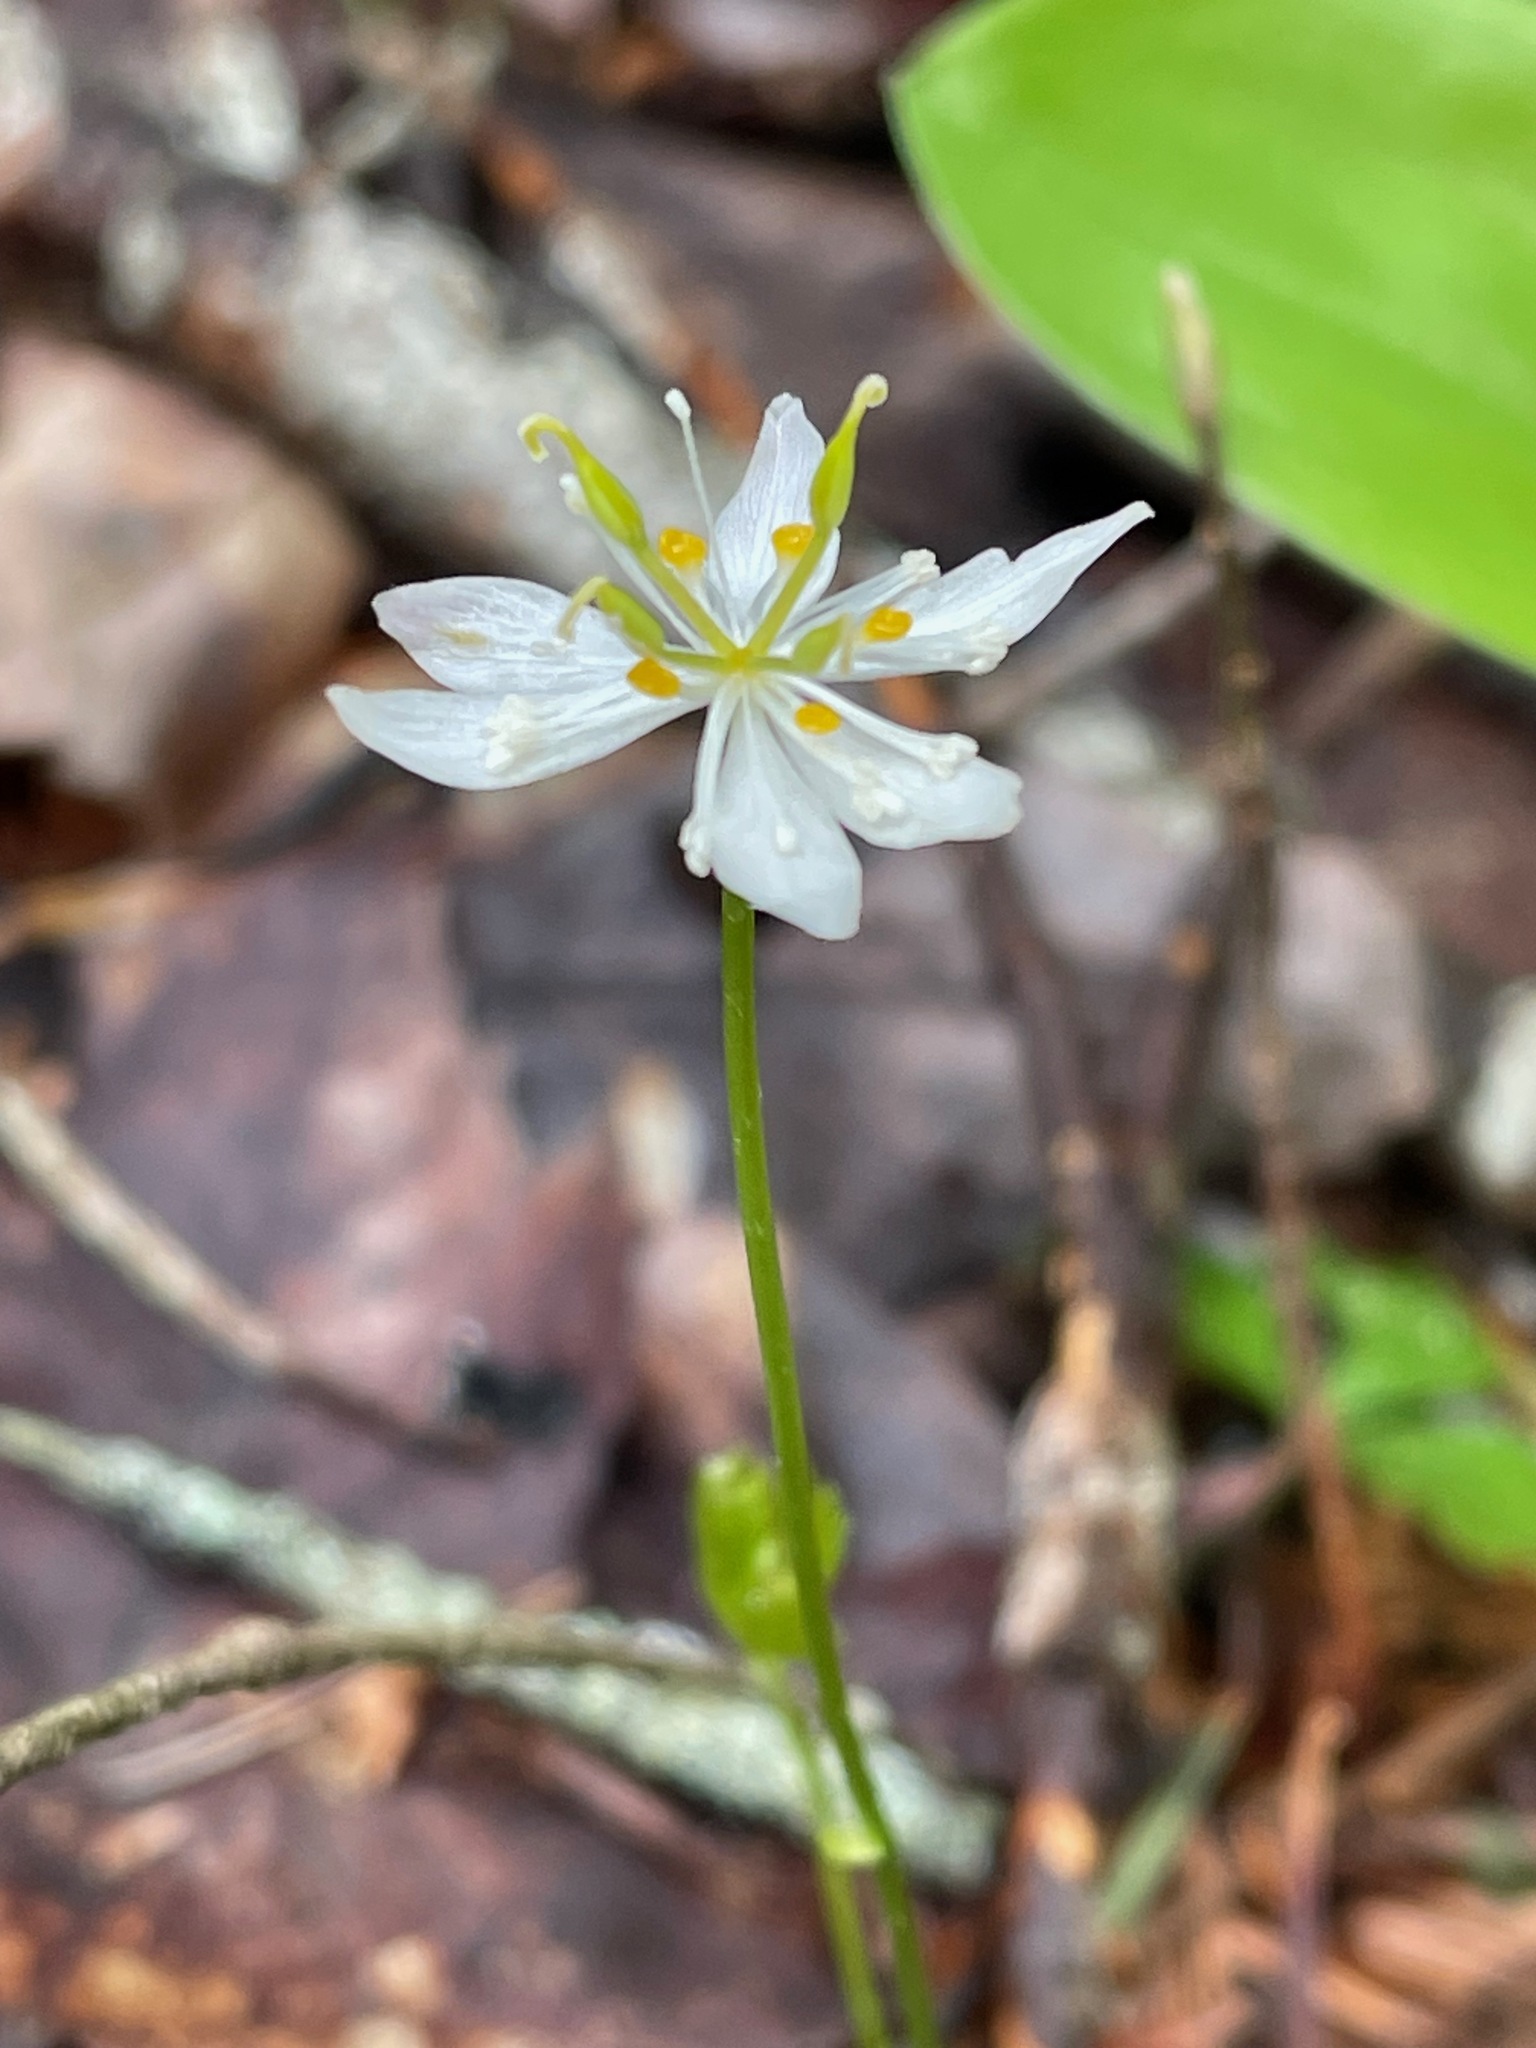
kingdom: Plantae
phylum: Tracheophyta
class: Magnoliopsida
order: Ranunculales
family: Ranunculaceae
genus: Coptis
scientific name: Coptis trifolia
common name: Canker-root
